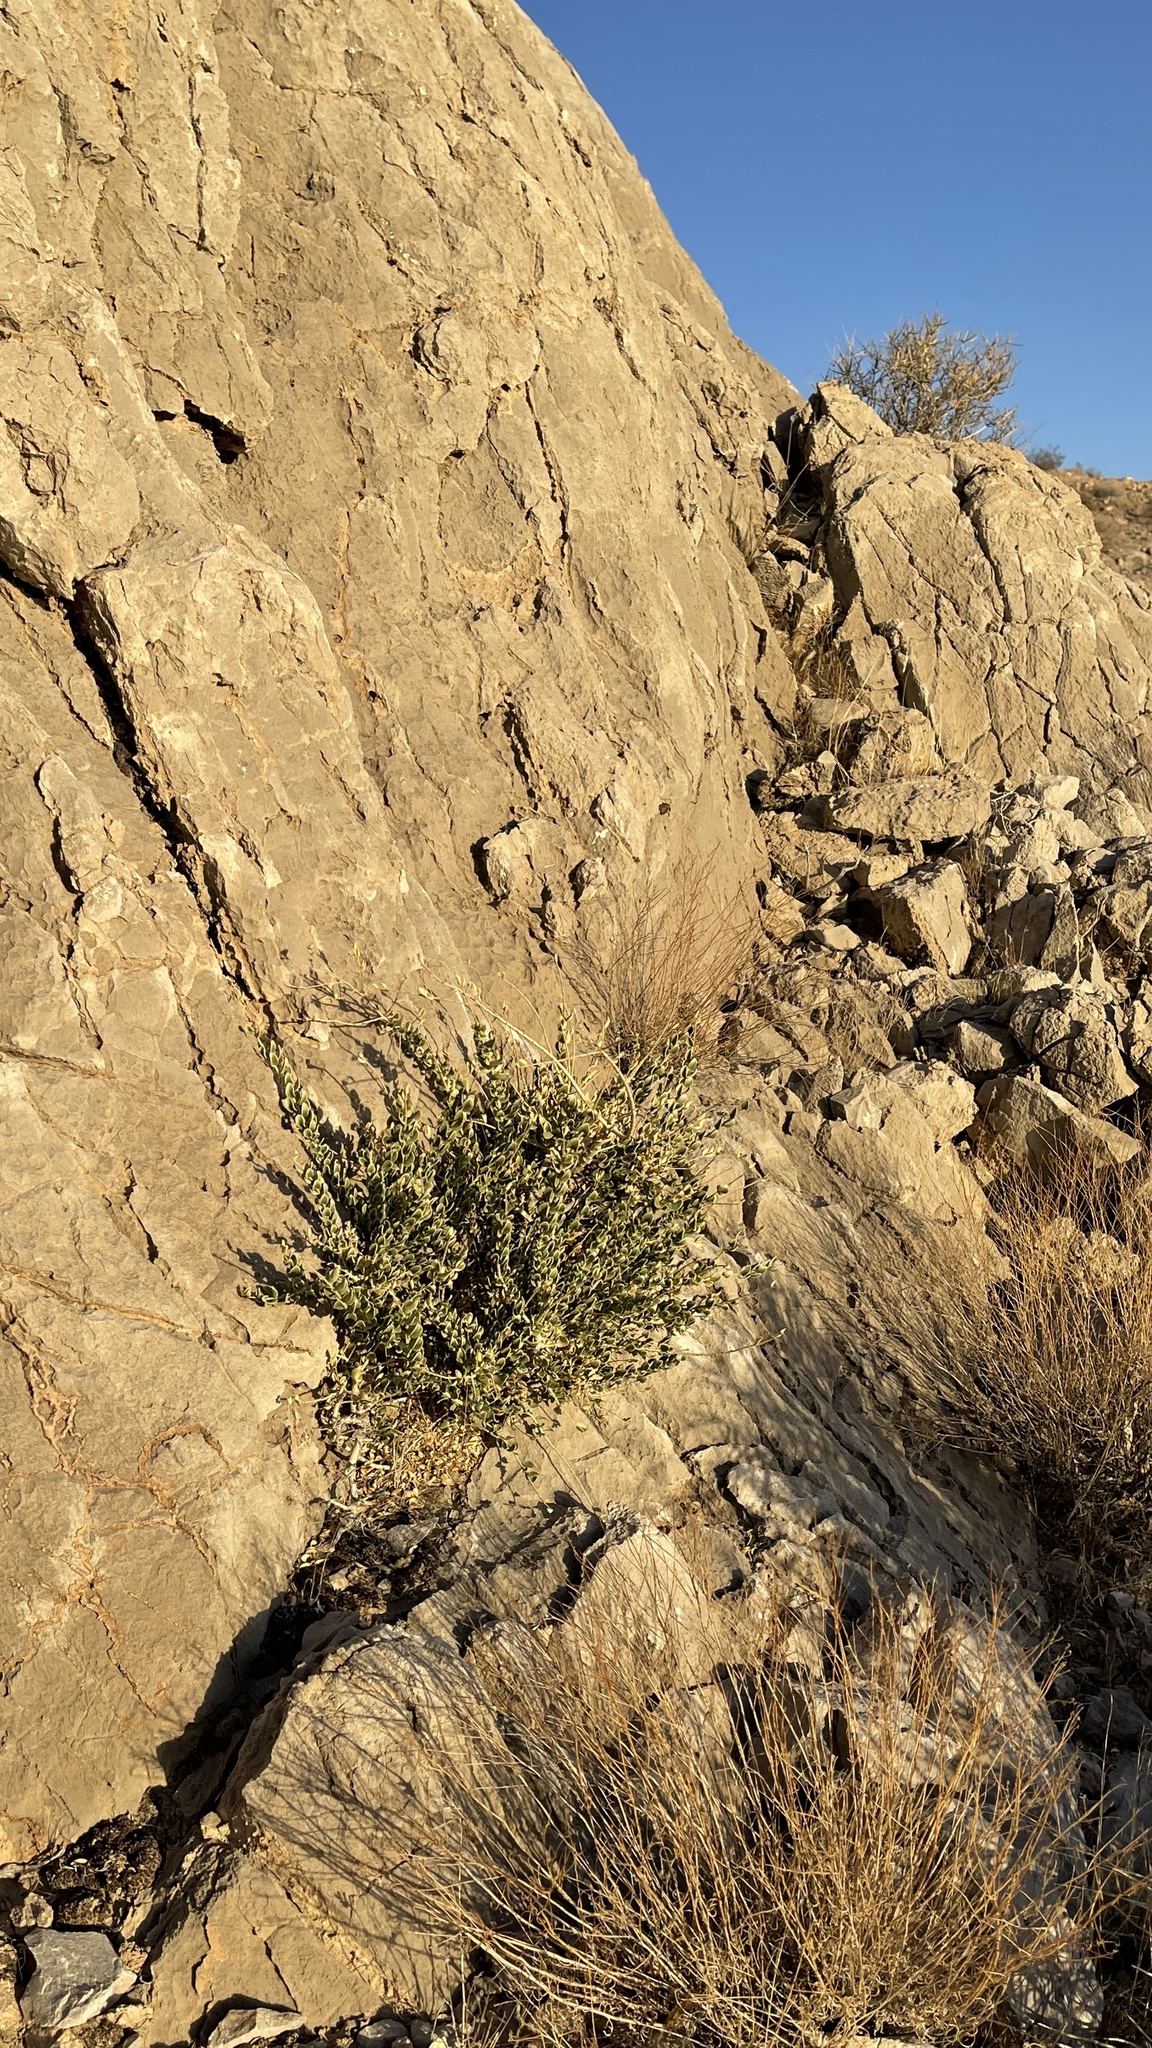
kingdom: Plantae
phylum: Tracheophyta
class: Magnoliopsida
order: Celastrales
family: Celastraceae
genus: Mortonia
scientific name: Mortonia utahensis
